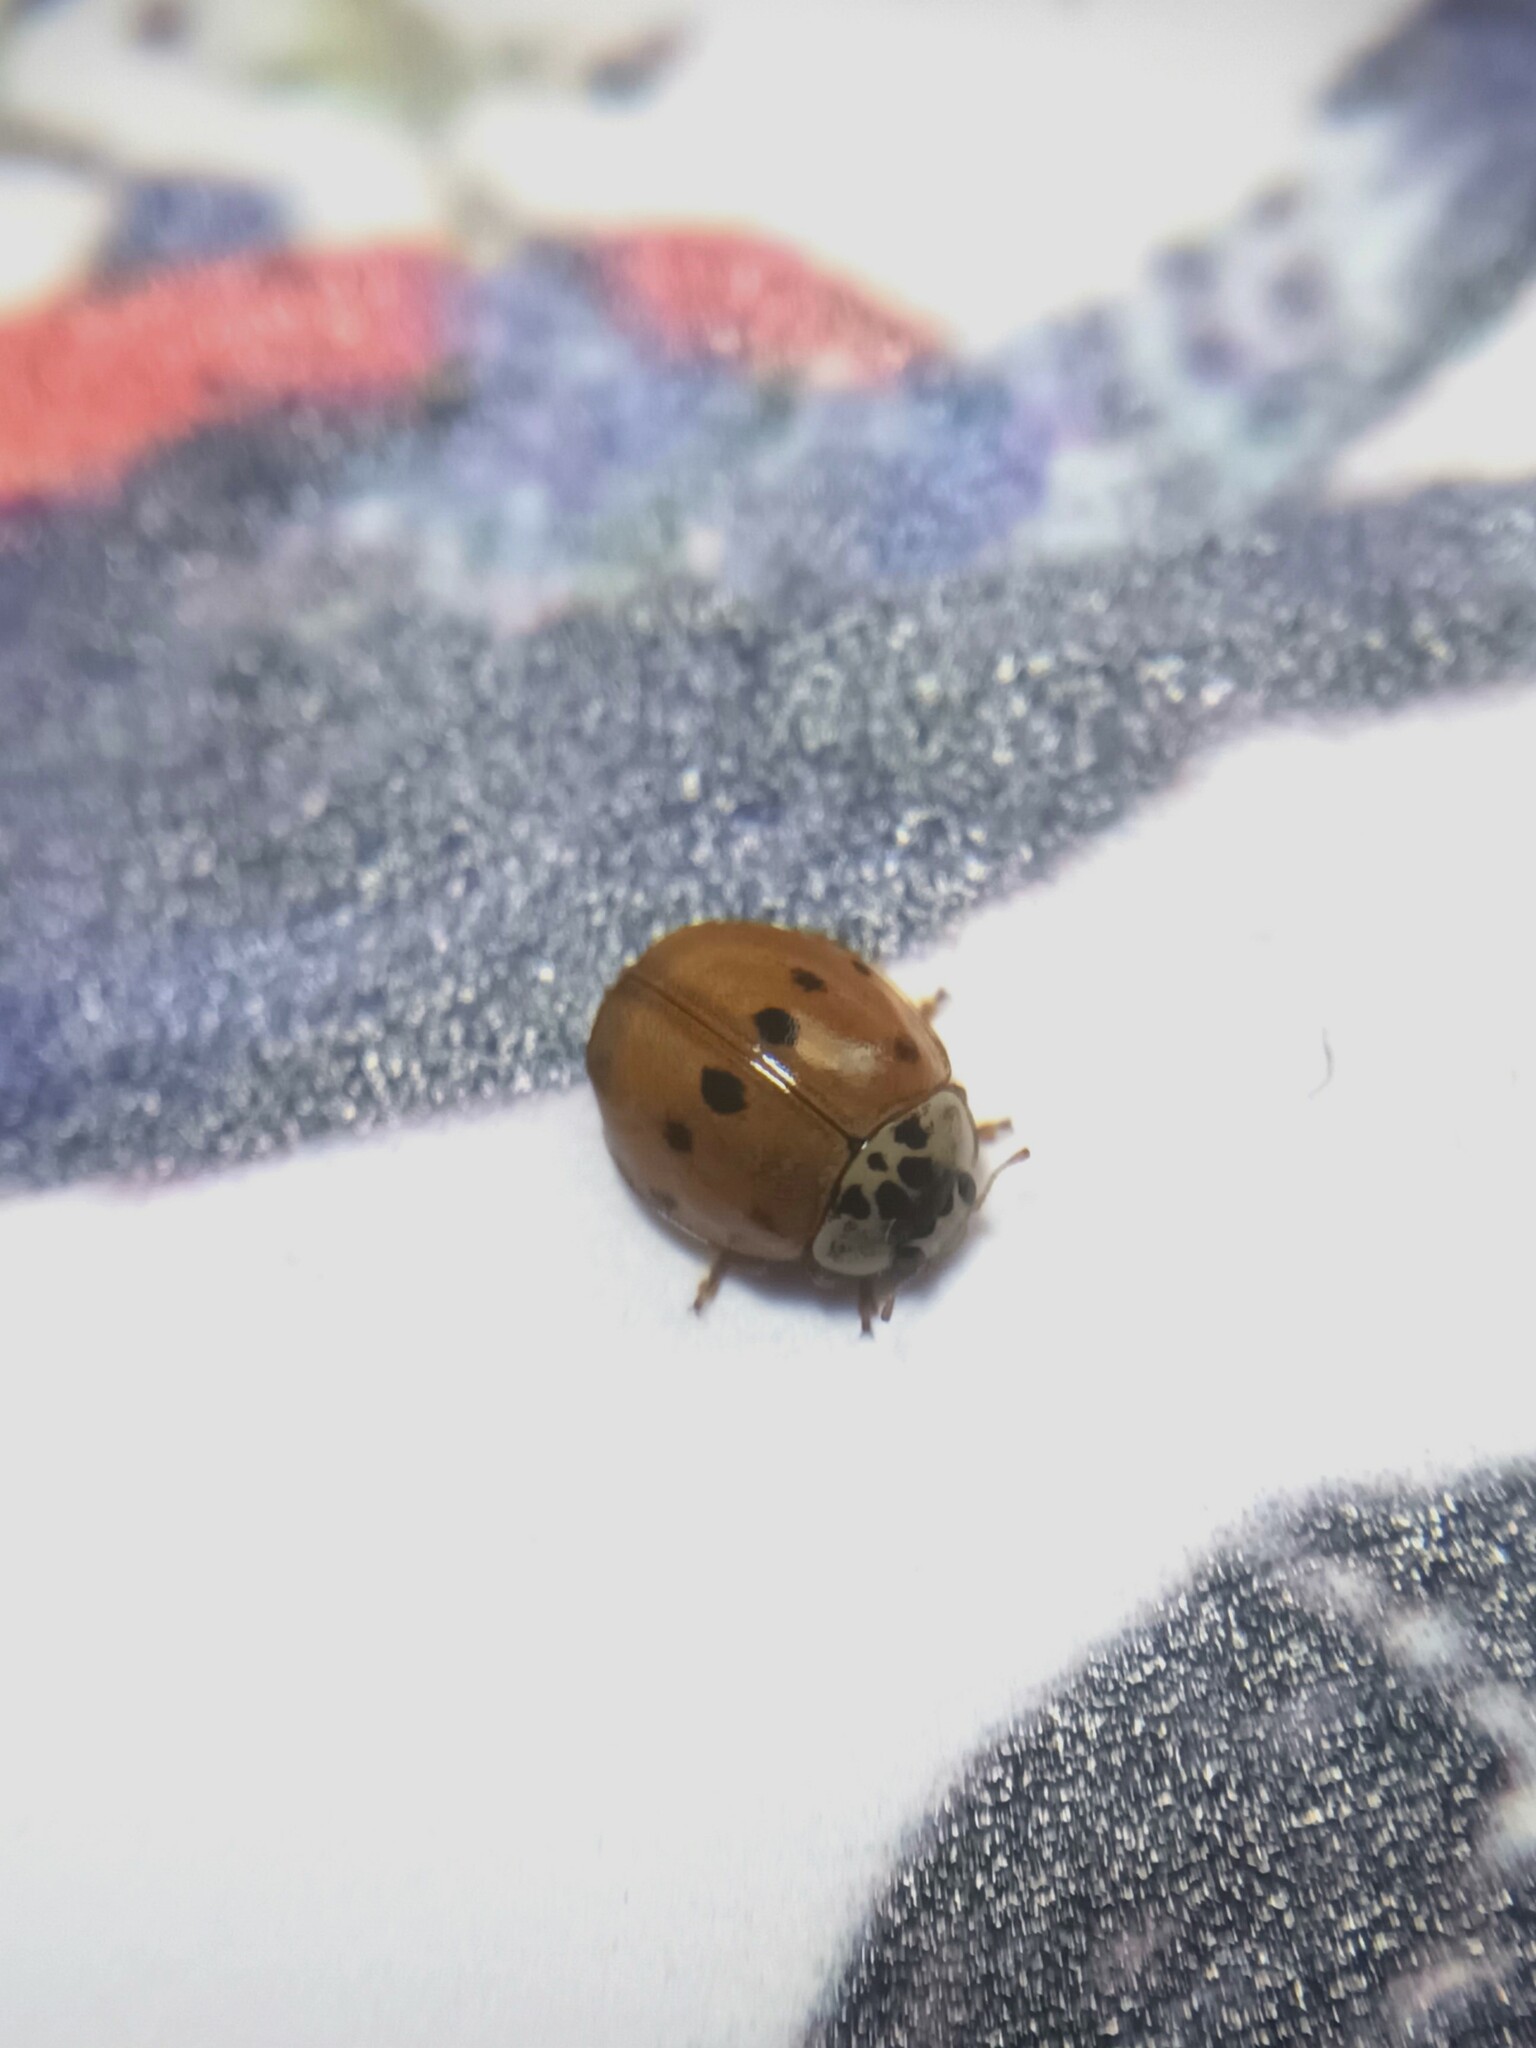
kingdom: Animalia
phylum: Arthropoda
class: Insecta
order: Coleoptera
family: Coccinellidae
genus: Adalia
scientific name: Adalia decempunctata
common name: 10-spot ladybird
